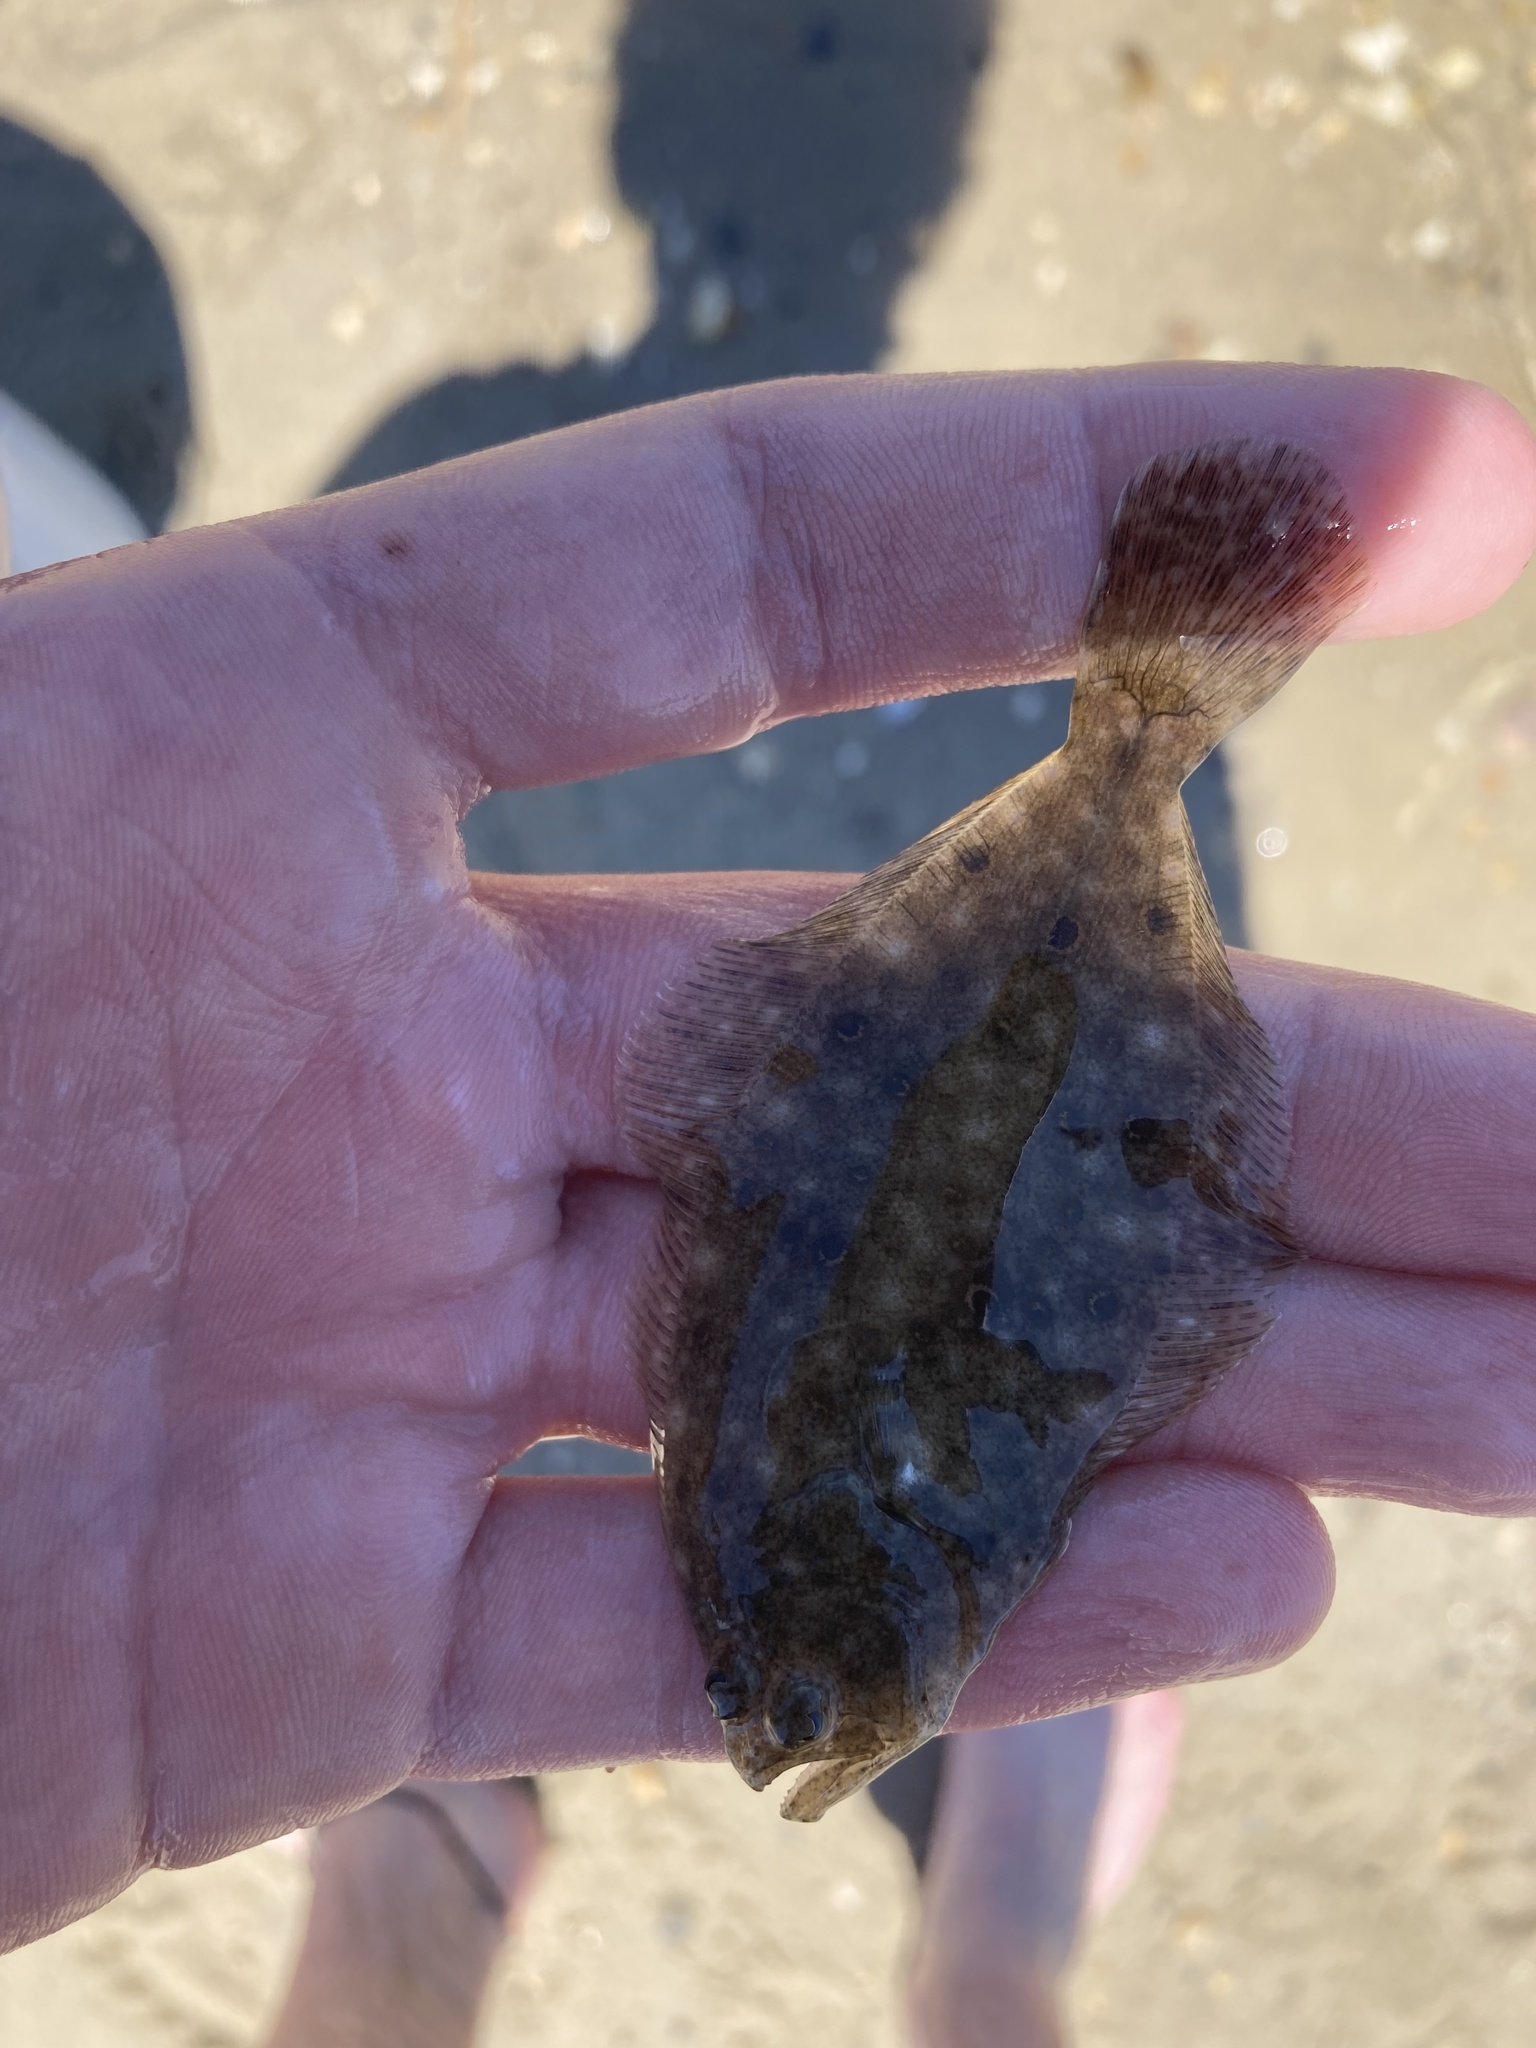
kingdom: Animalia
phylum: Chordata
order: Pleuronectiformes
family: Paralichthyidae
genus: Paralichthys
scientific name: Paralichthys dentatus
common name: Summer flounder
